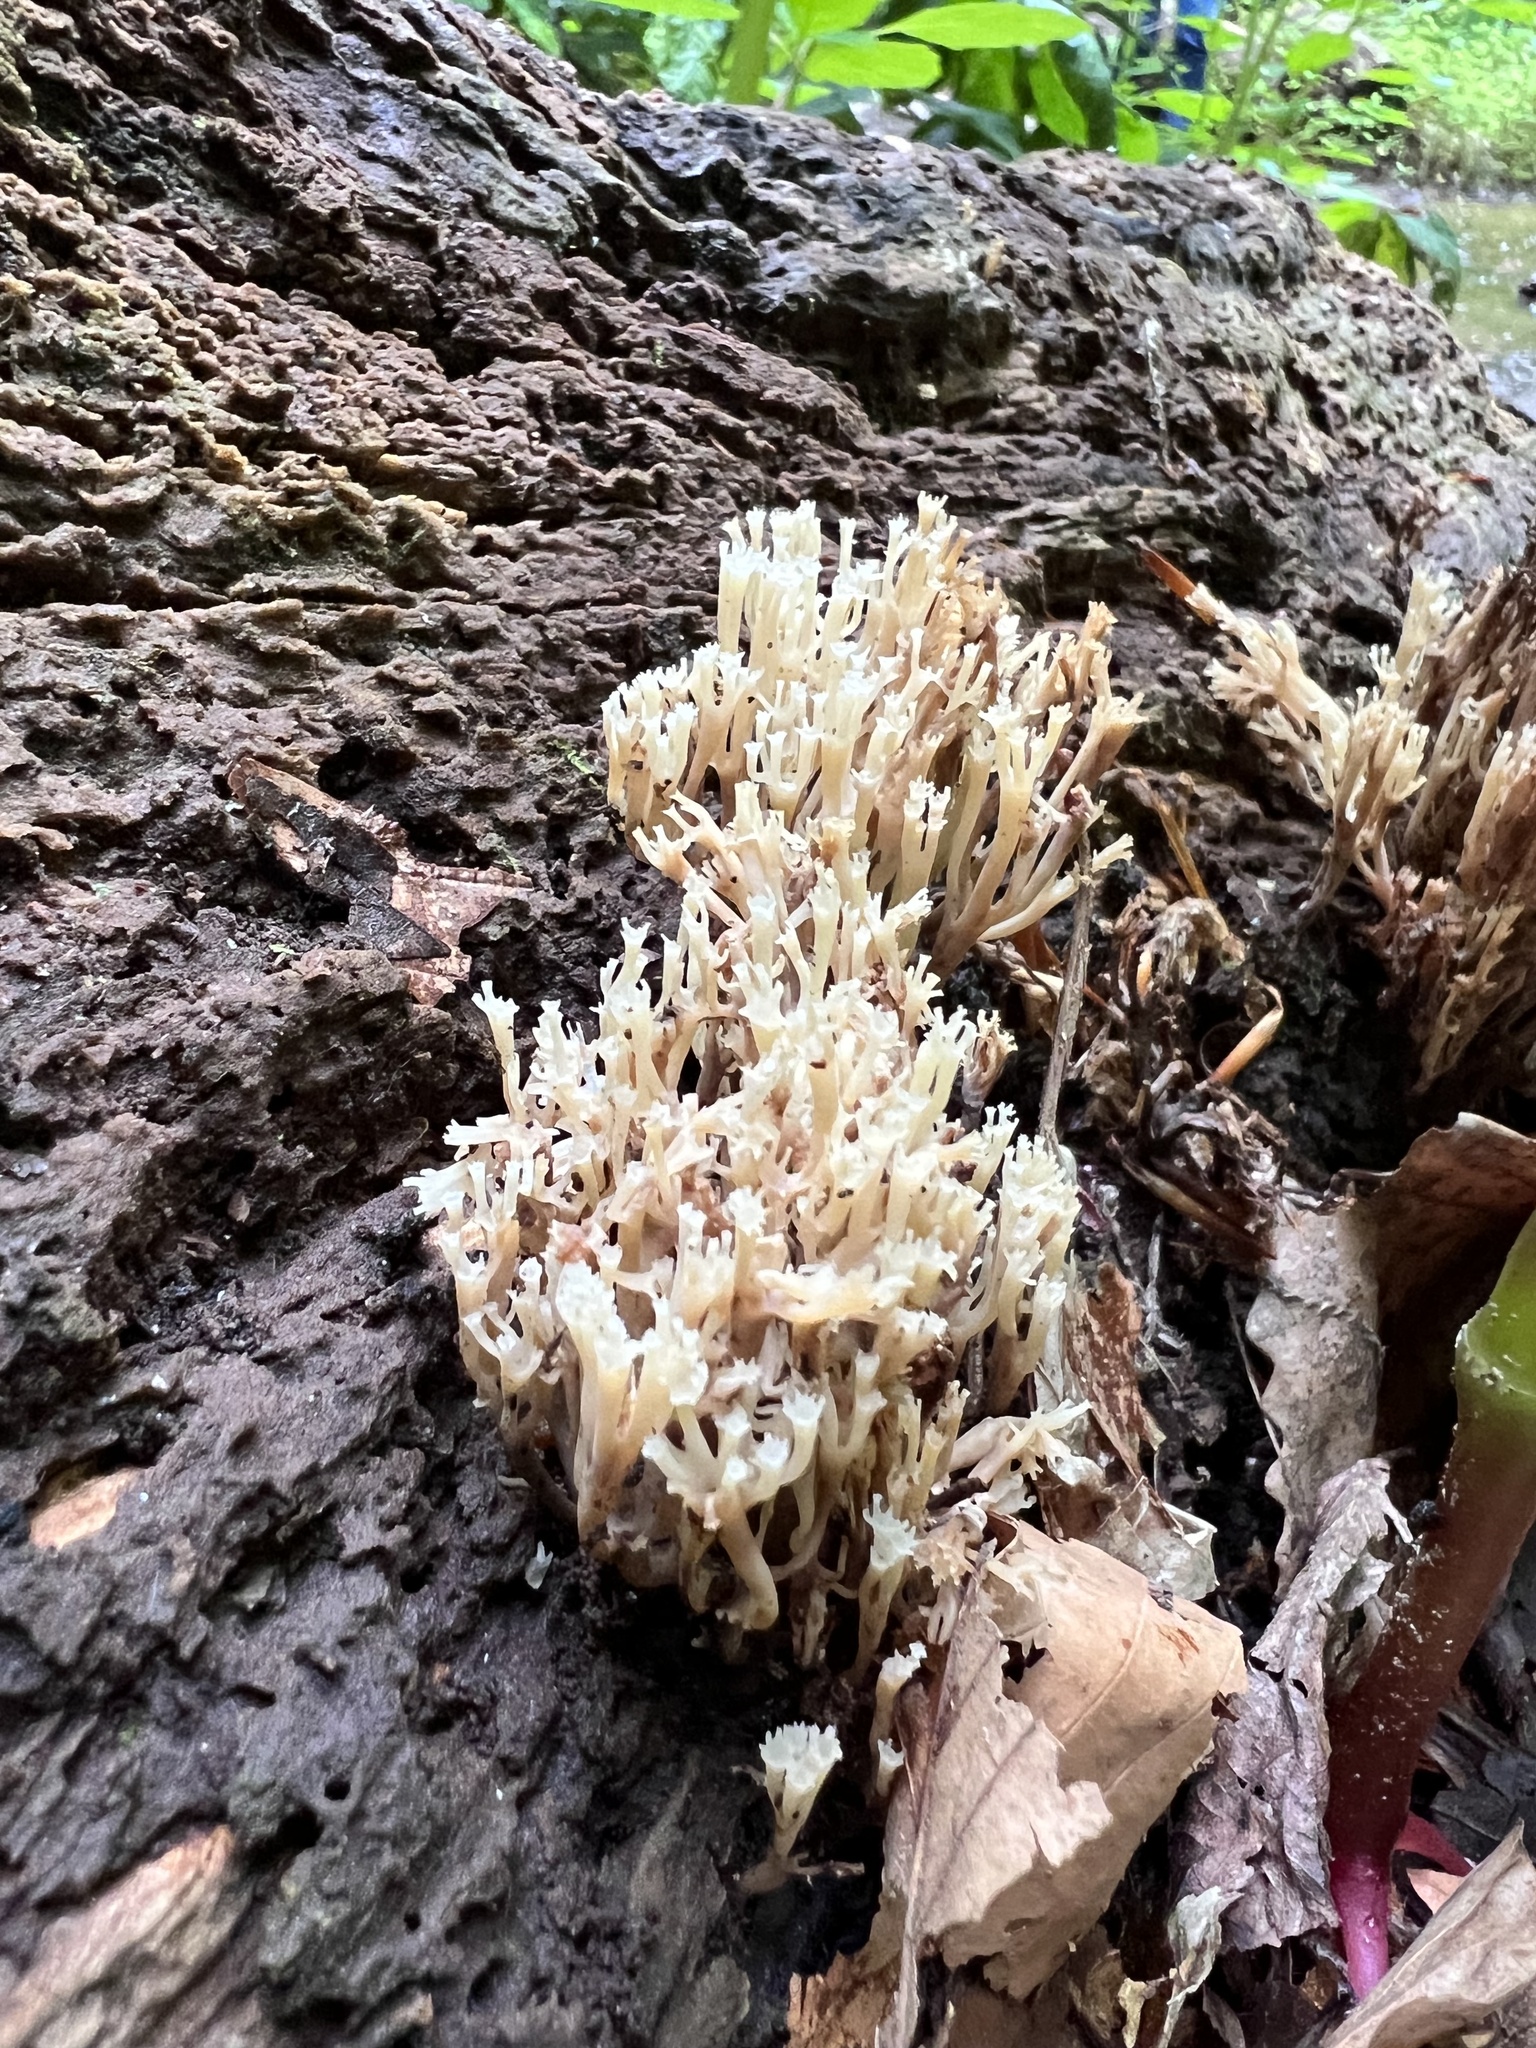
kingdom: Fungi
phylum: Basidiomycota
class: Agaricomycetes
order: Russulales
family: Auriscalpiaceae
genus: Artomyces
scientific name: Artomyces pyxidatus
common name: Crown-tipped coral fungus
